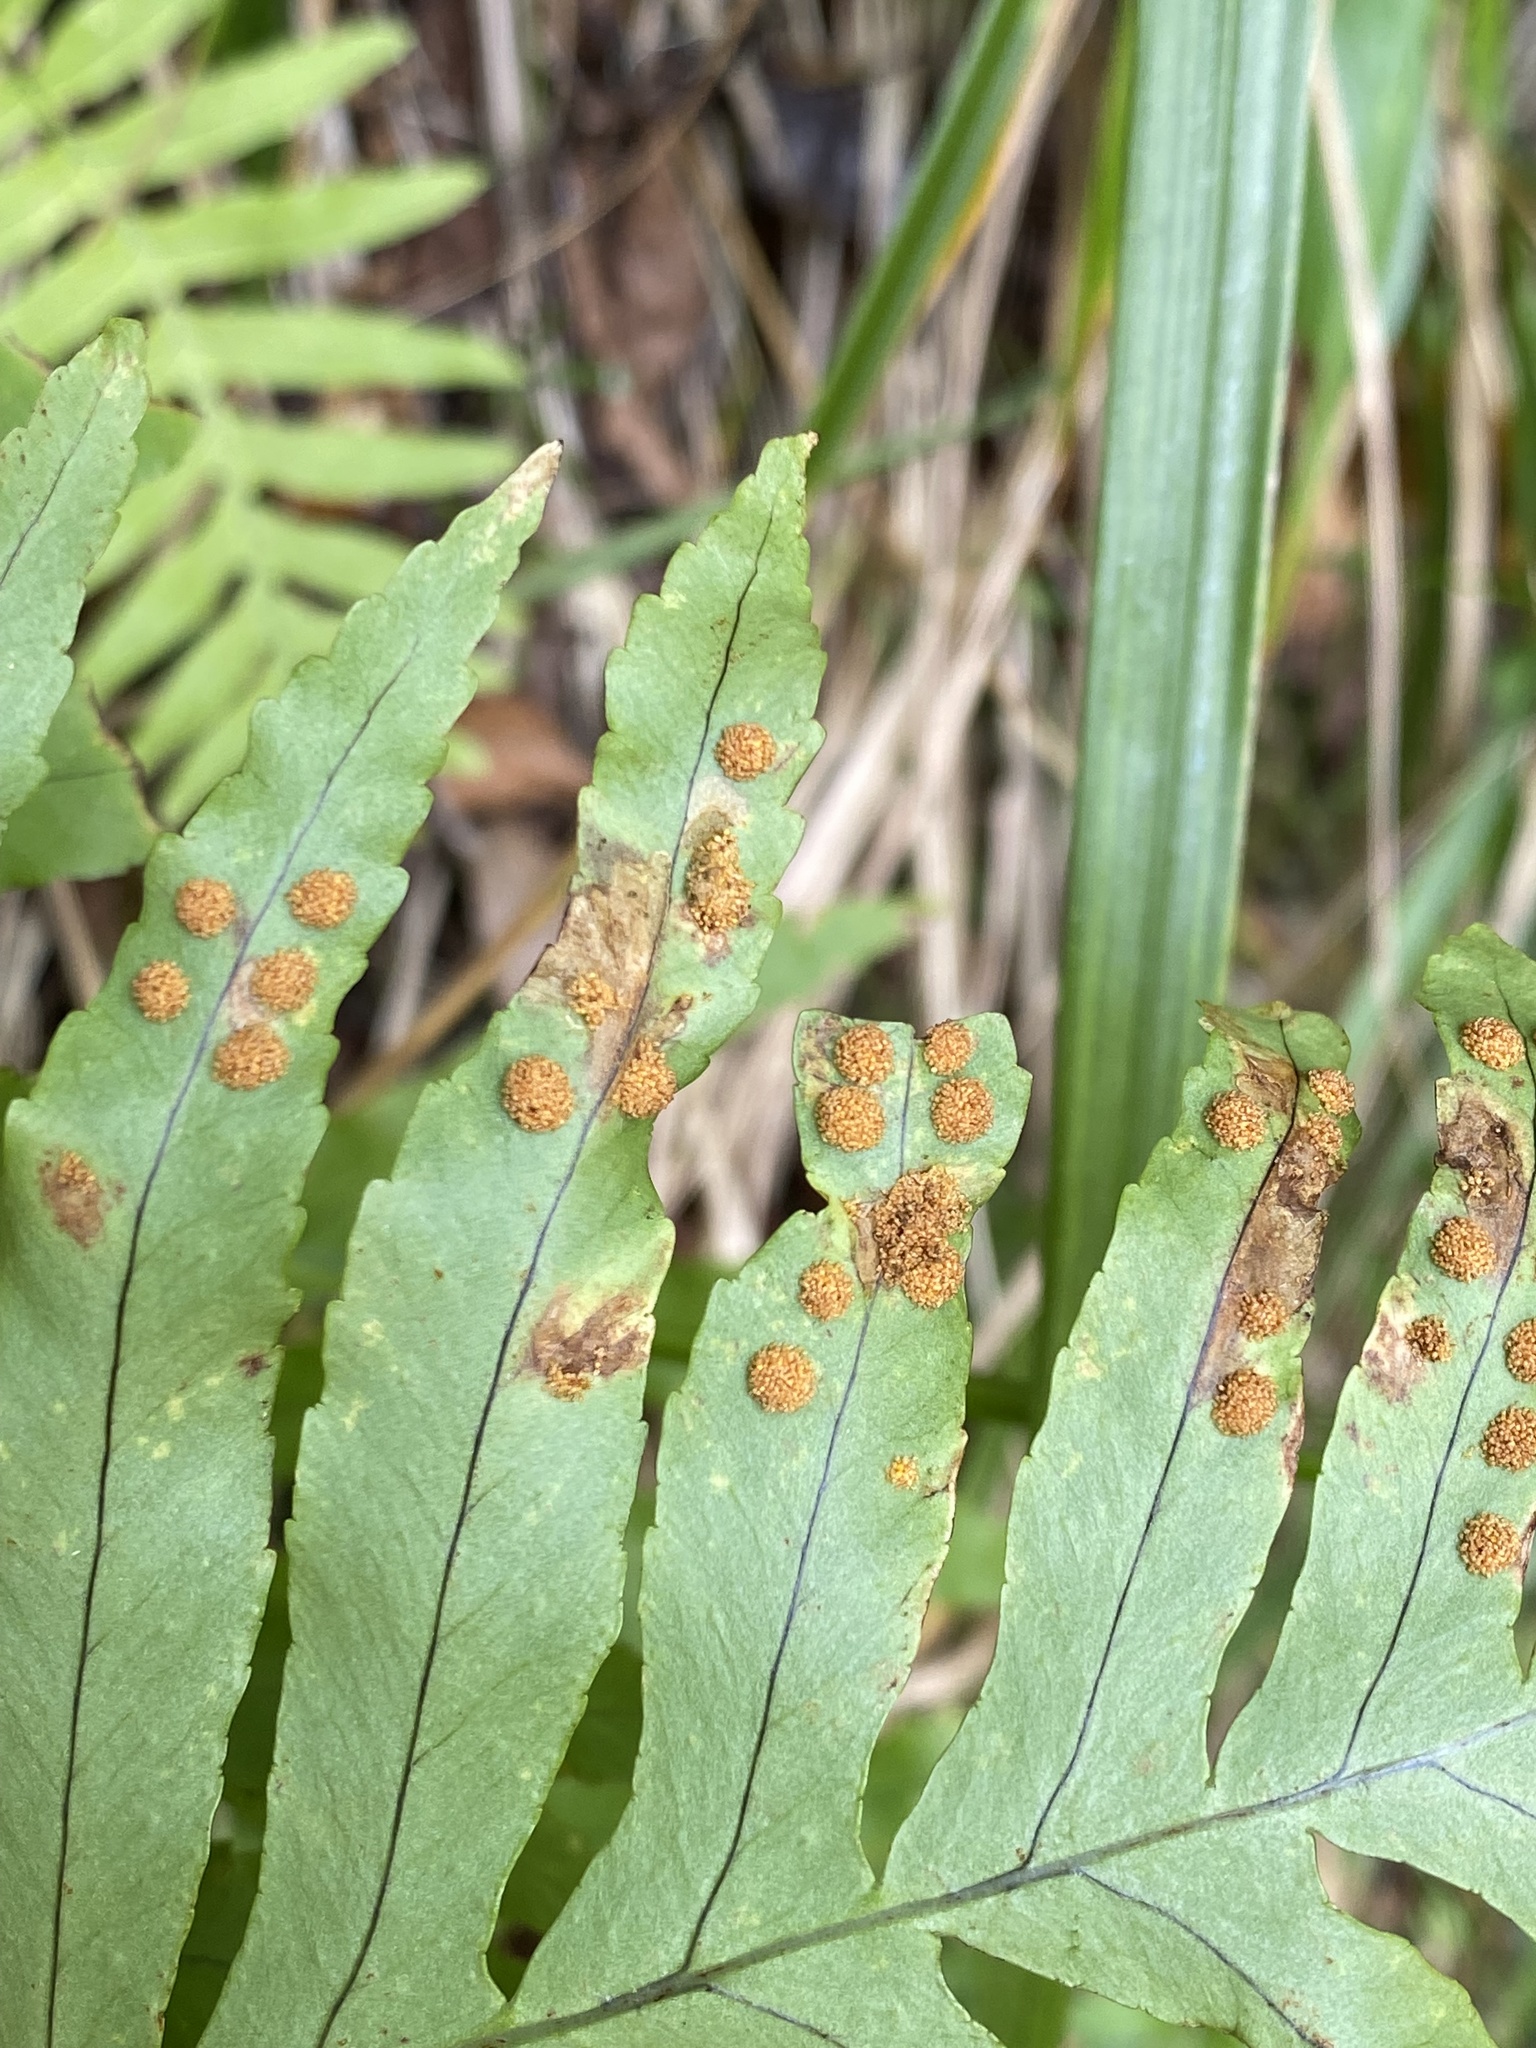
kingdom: Plantae
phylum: Tracheophyta
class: Polypodiopsida
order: Polypodiales
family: Polypodiaceae
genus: Polypodium
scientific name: Polypodium macaronesicum
